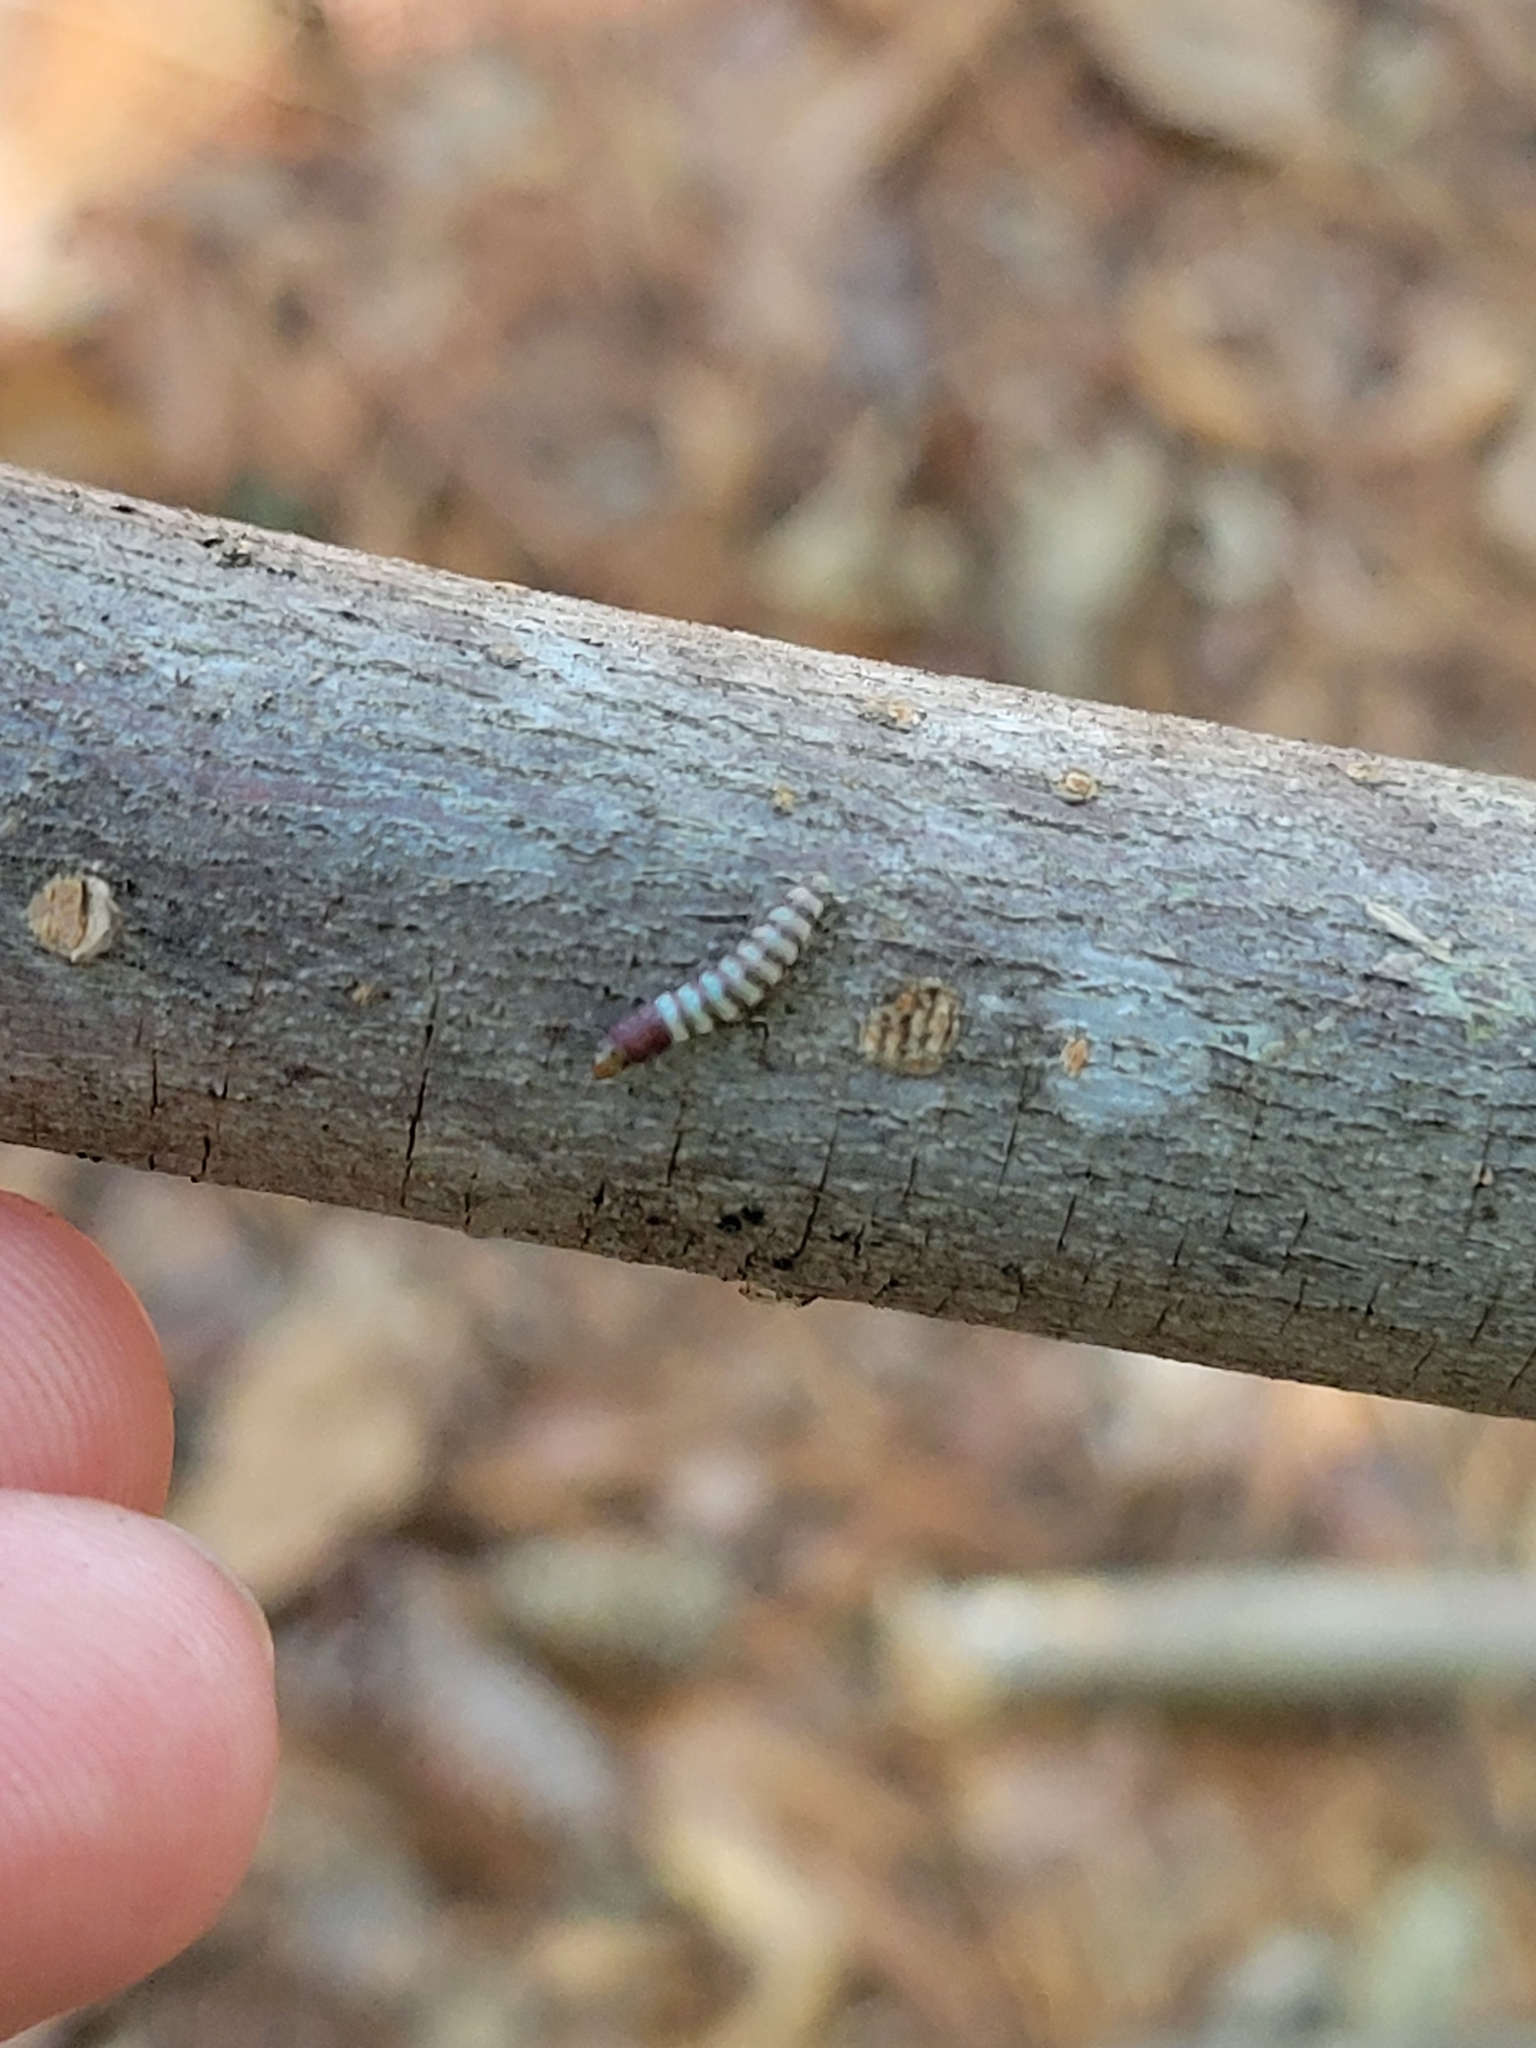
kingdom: Animalia
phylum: Arthropoda
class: Insecta
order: Lepidoptera
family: Gelechiidae
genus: Arogalea
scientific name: Arogalea cristifasciella
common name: White stripe-backed moth
